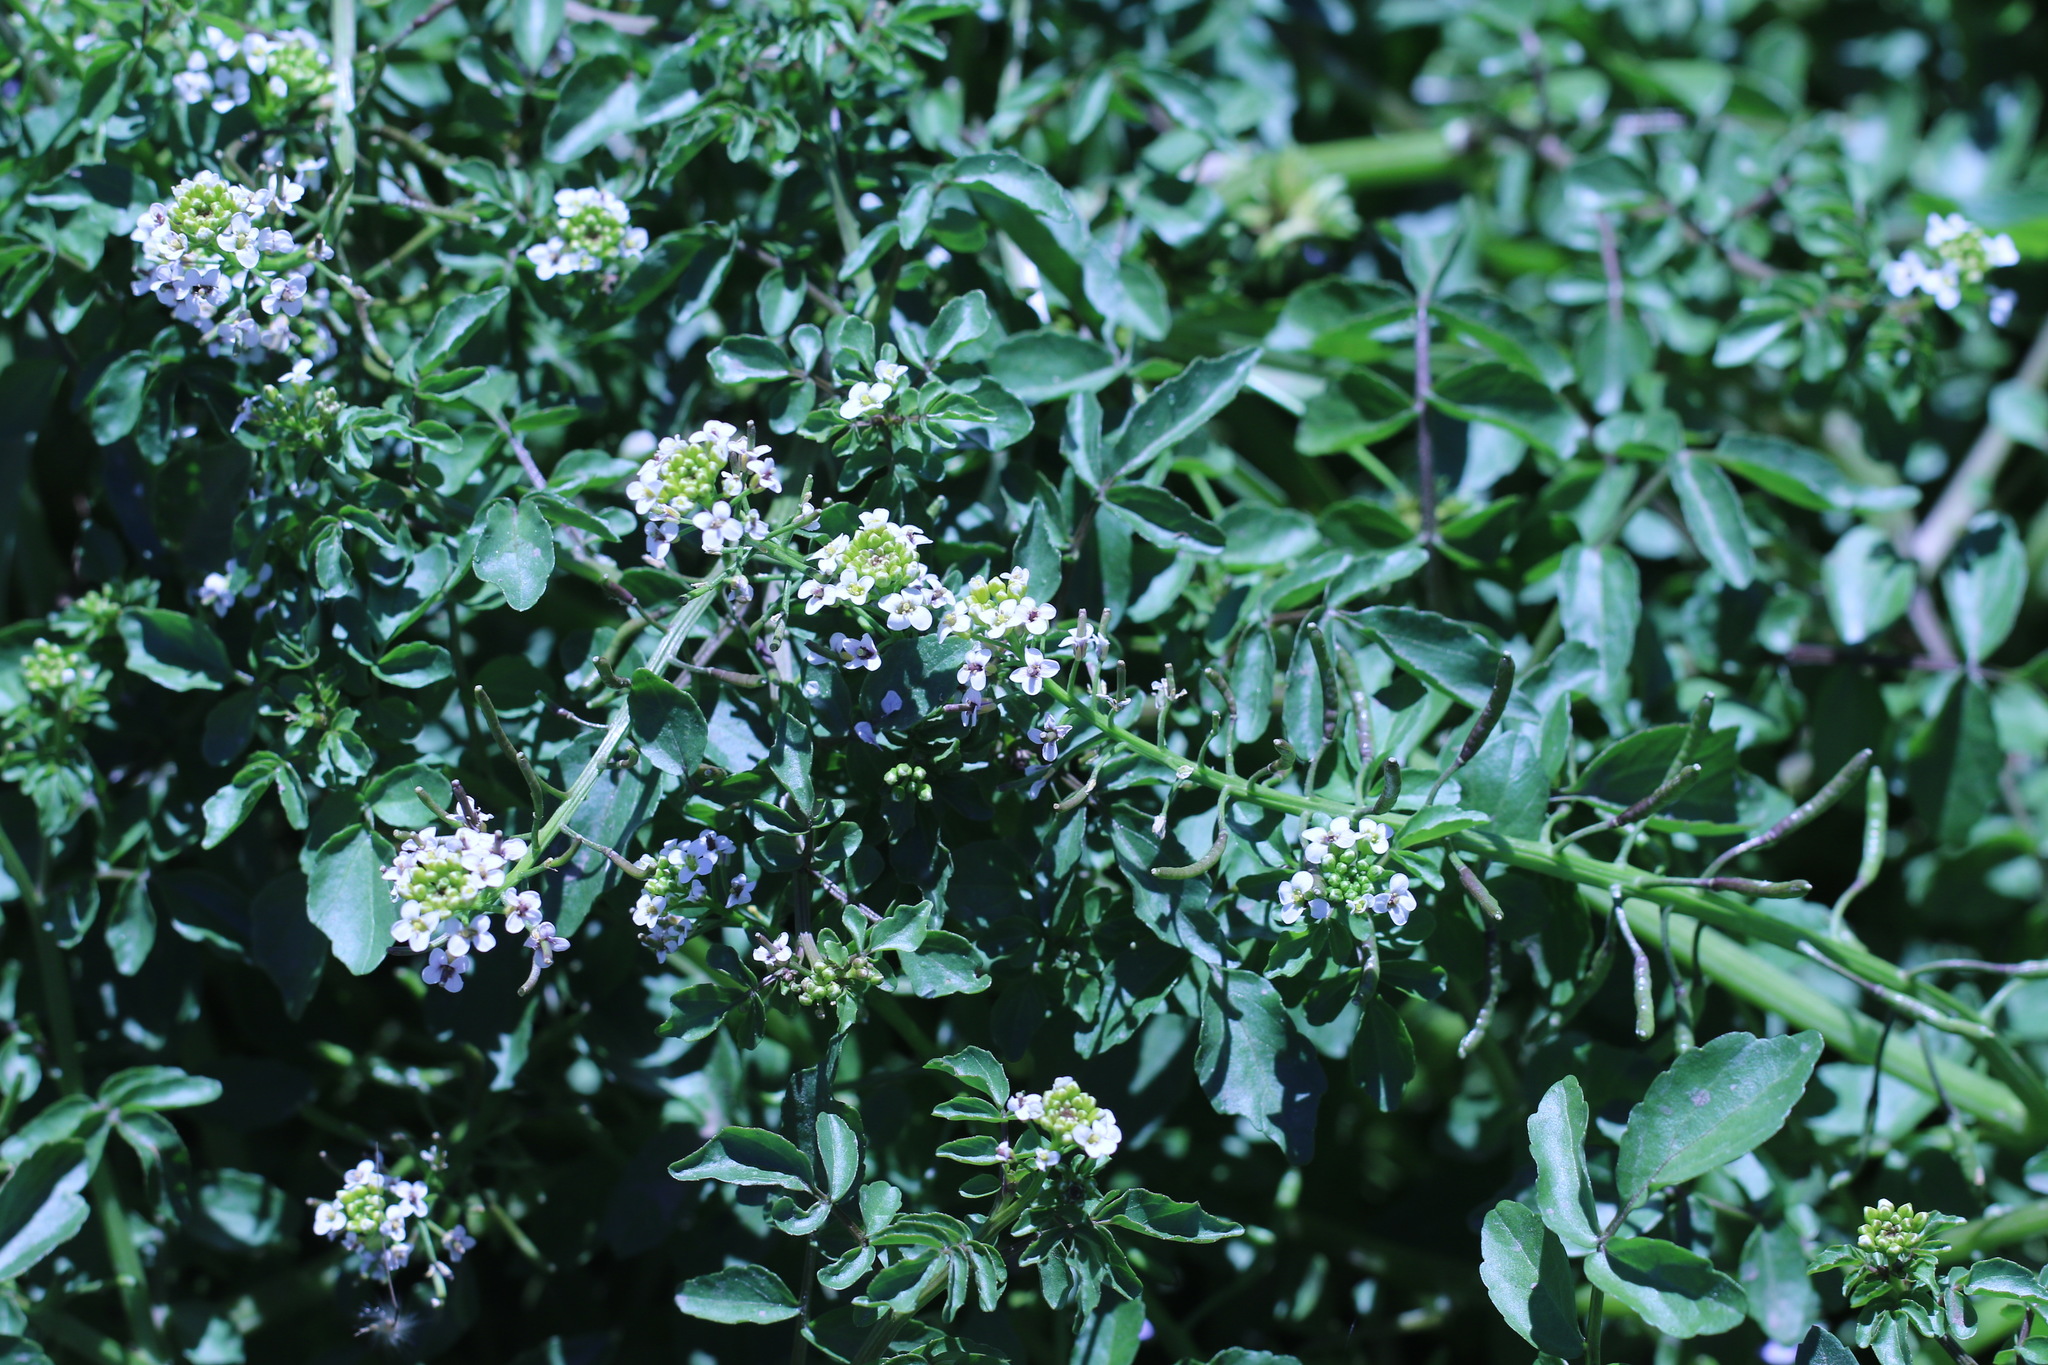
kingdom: Plantae
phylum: Tracheophyta
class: Magnoliopsida
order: Brassicales
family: Brassicaceae
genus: Nasturtium
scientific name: Nasturtium officinale
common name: Watercress
